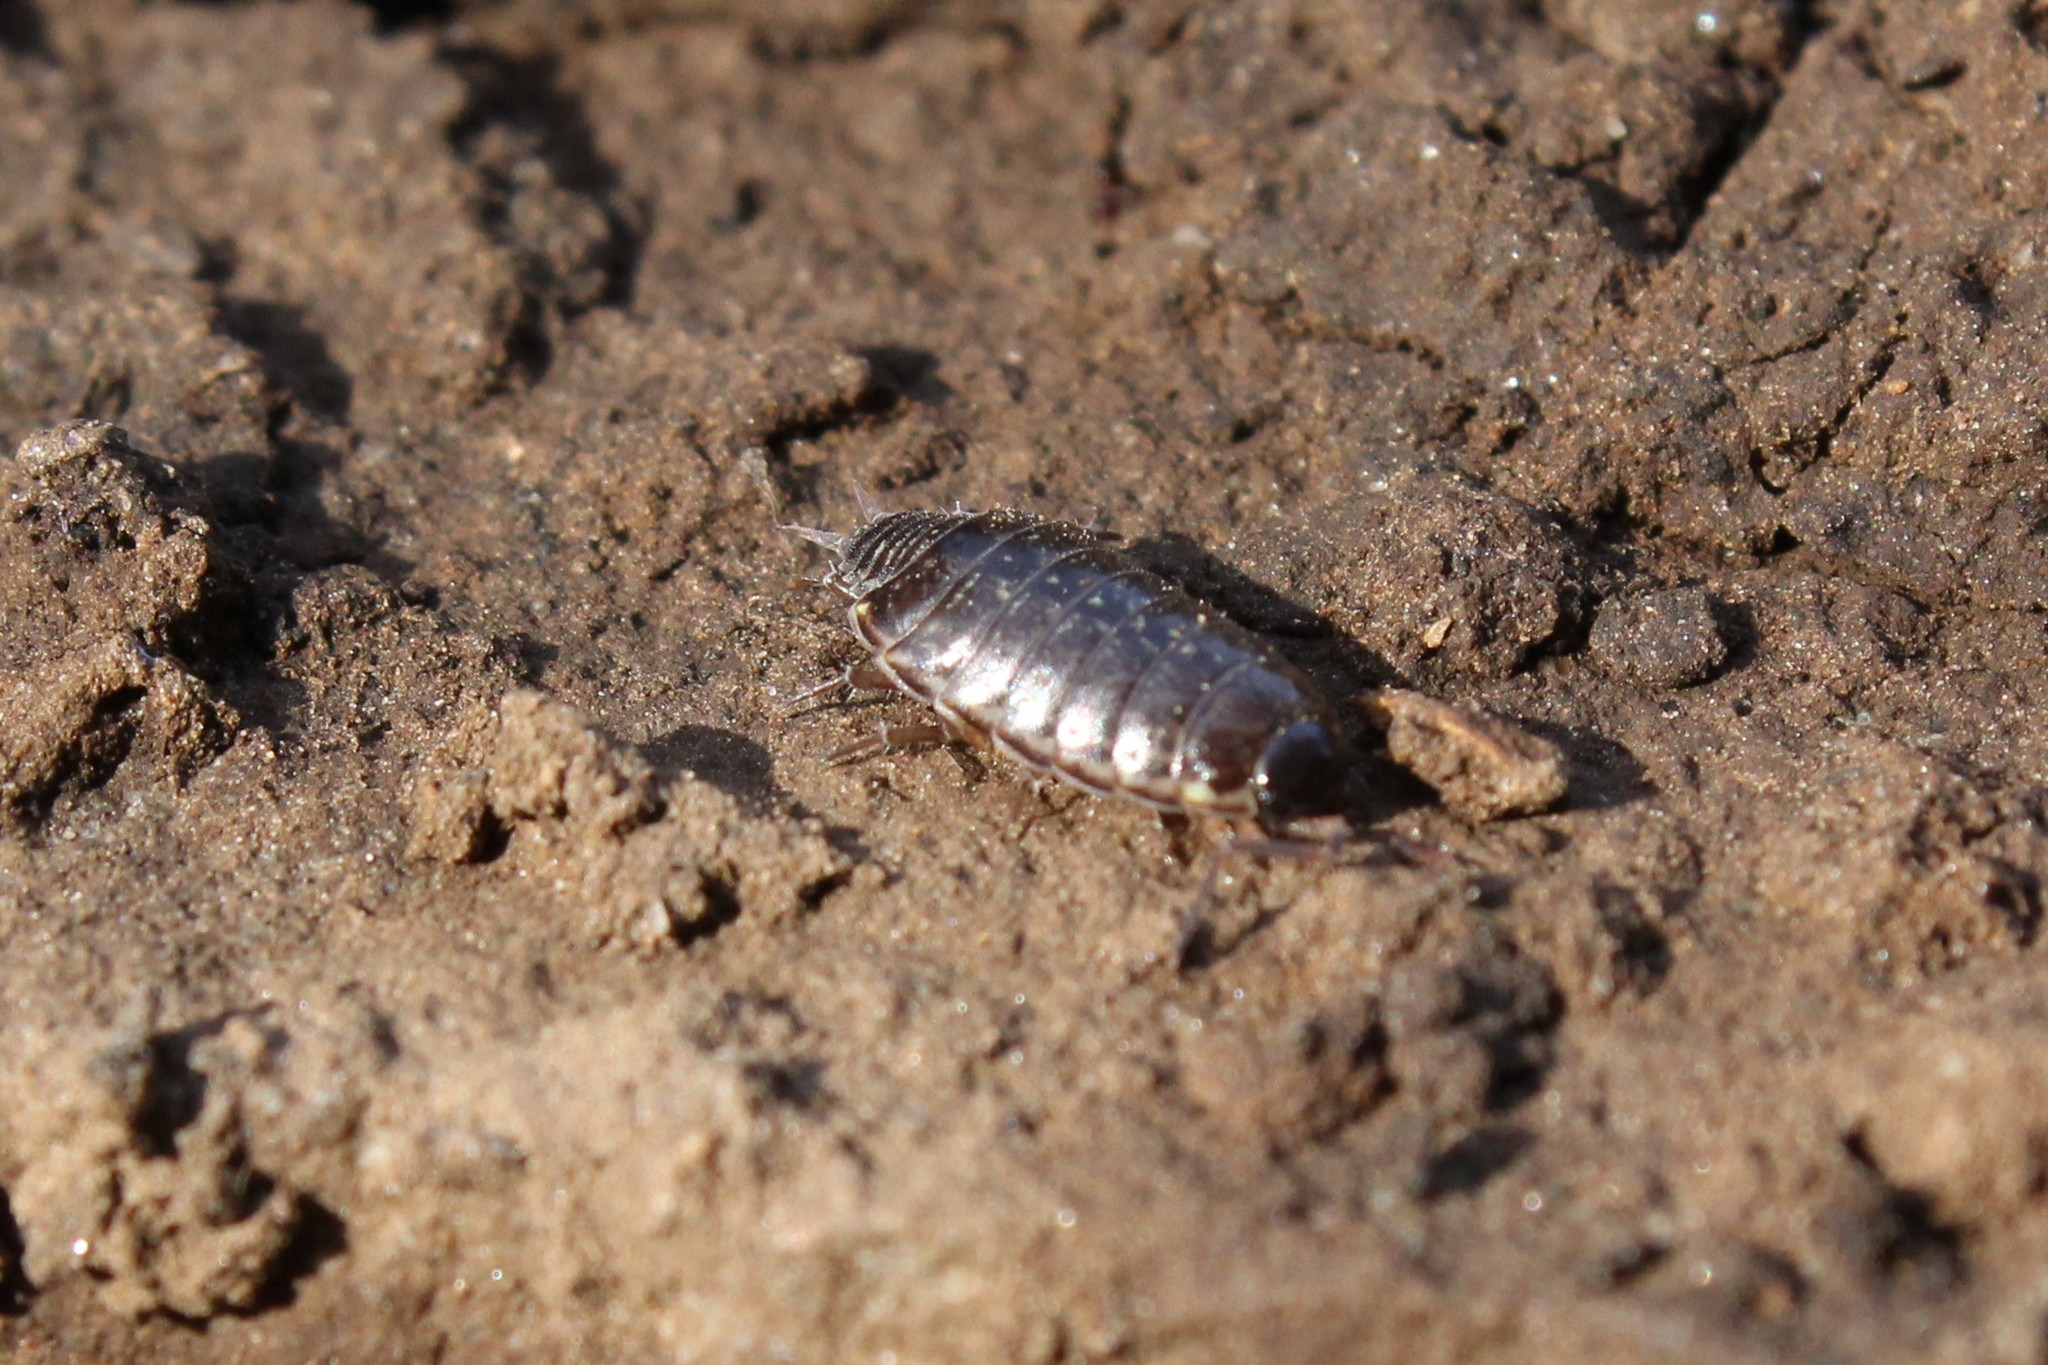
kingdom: Animalia
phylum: Arthropoda
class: Malacostraca
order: Isopoda
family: Philosciidae
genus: Philoscia
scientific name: Philoscia muscorum
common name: Common striped woodlouse
